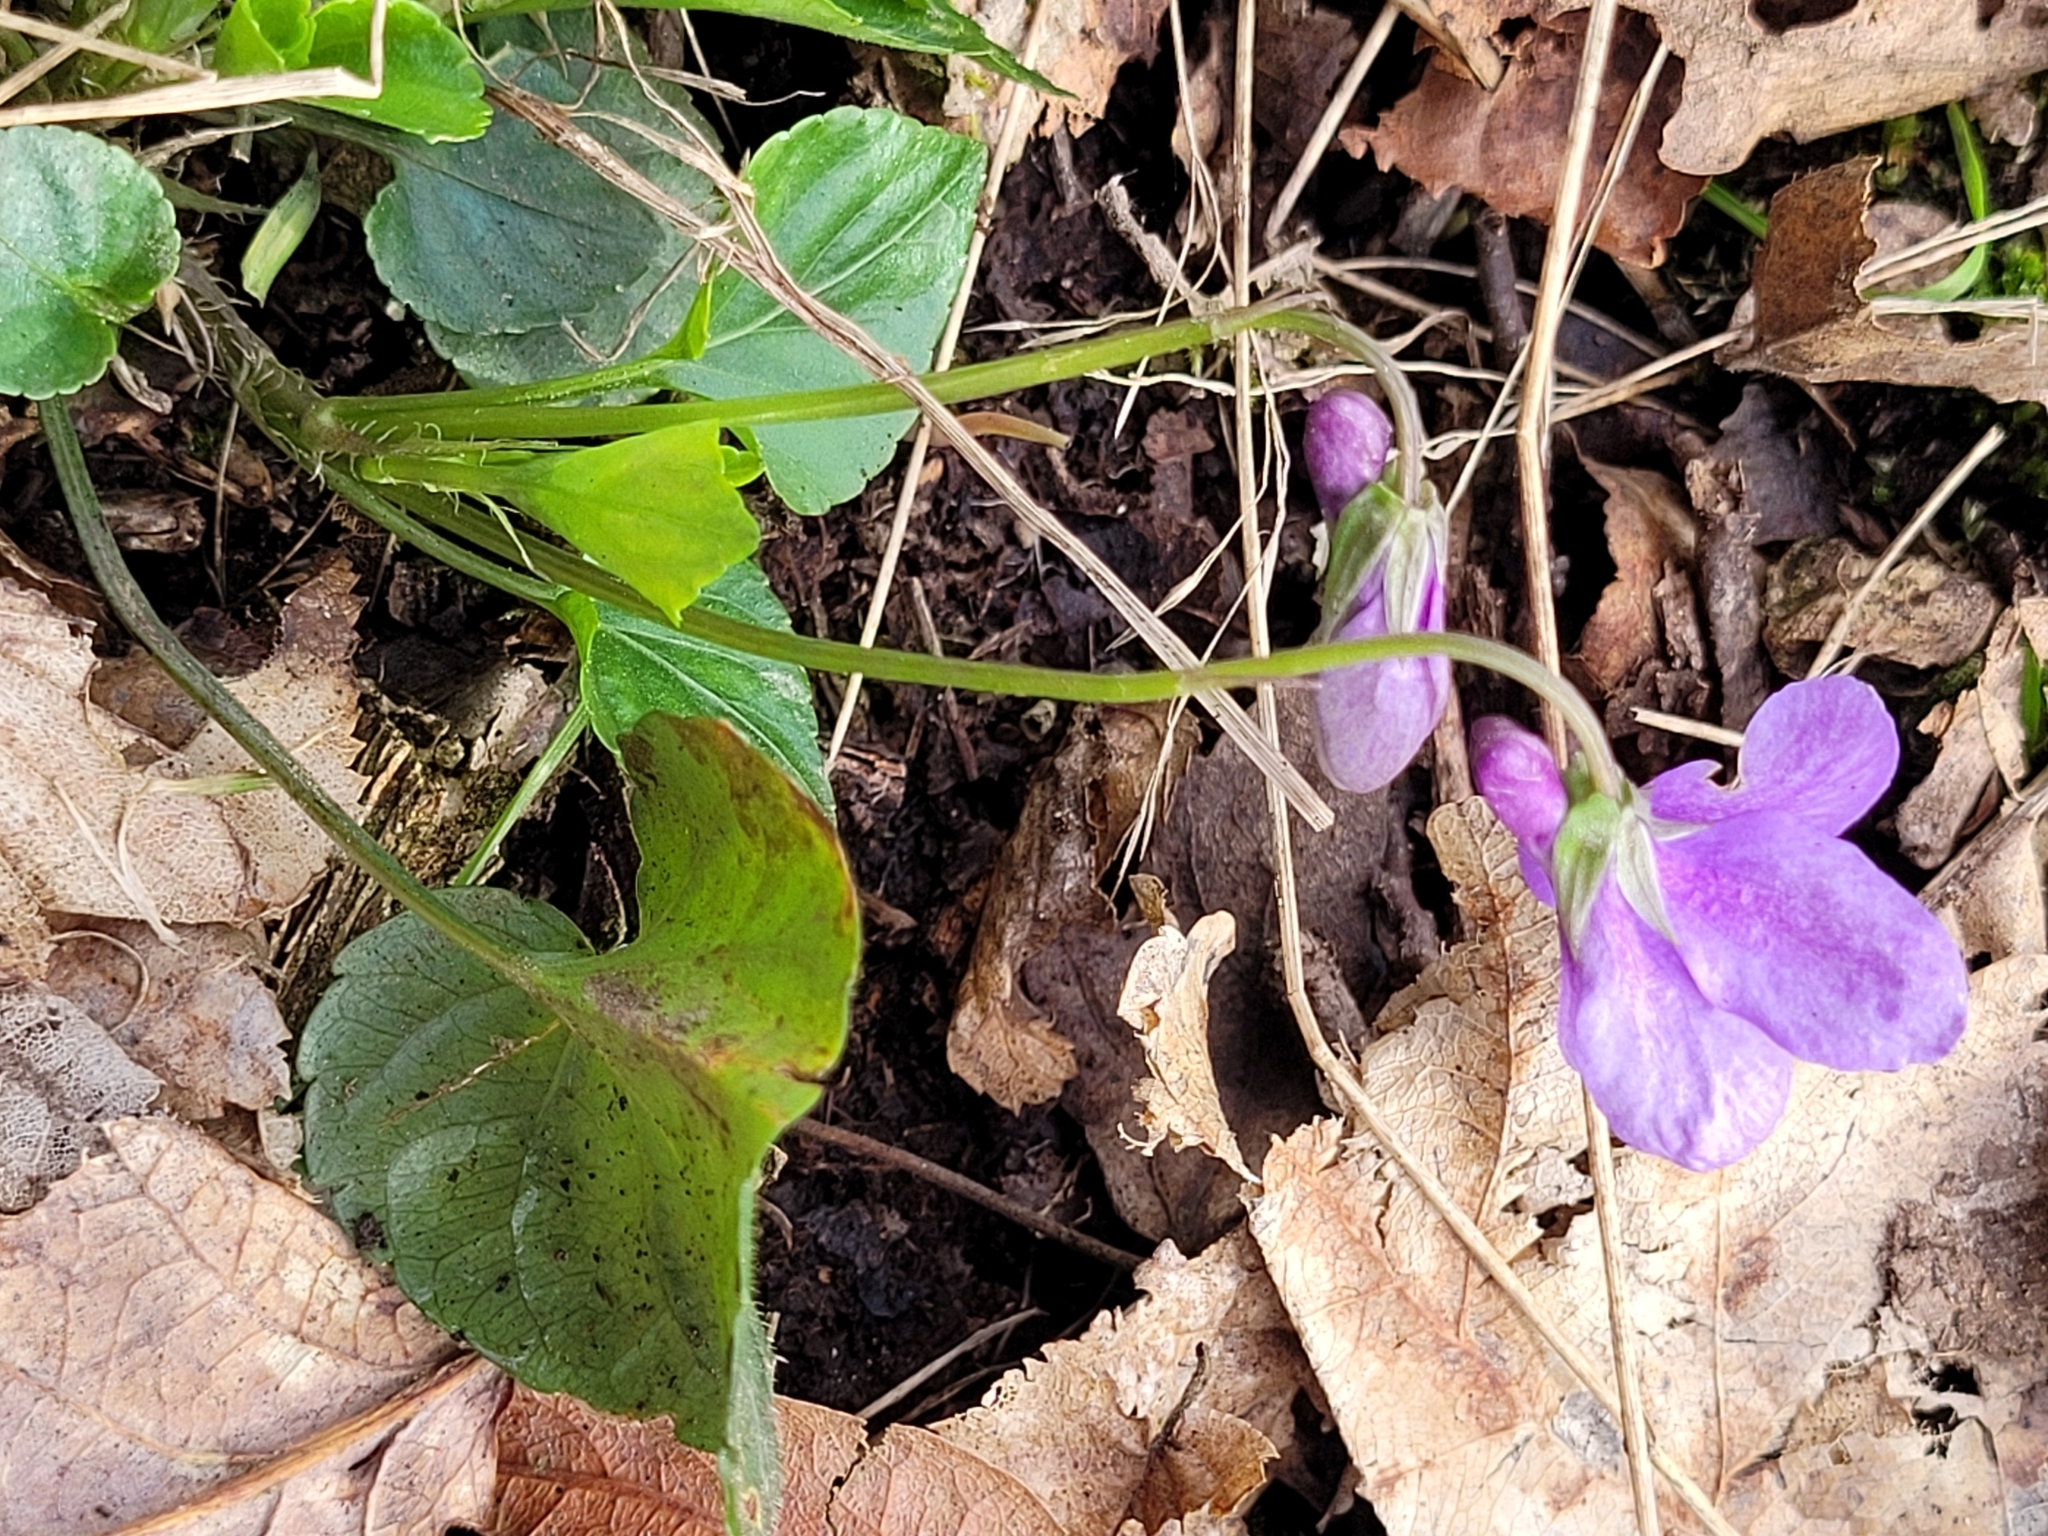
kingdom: Plantae
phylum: Tracheophyta
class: Magnoliopsida
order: Malpighiales
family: Violaceae
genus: Viola
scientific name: Viola reichenbachiana
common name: Early dog-violet
